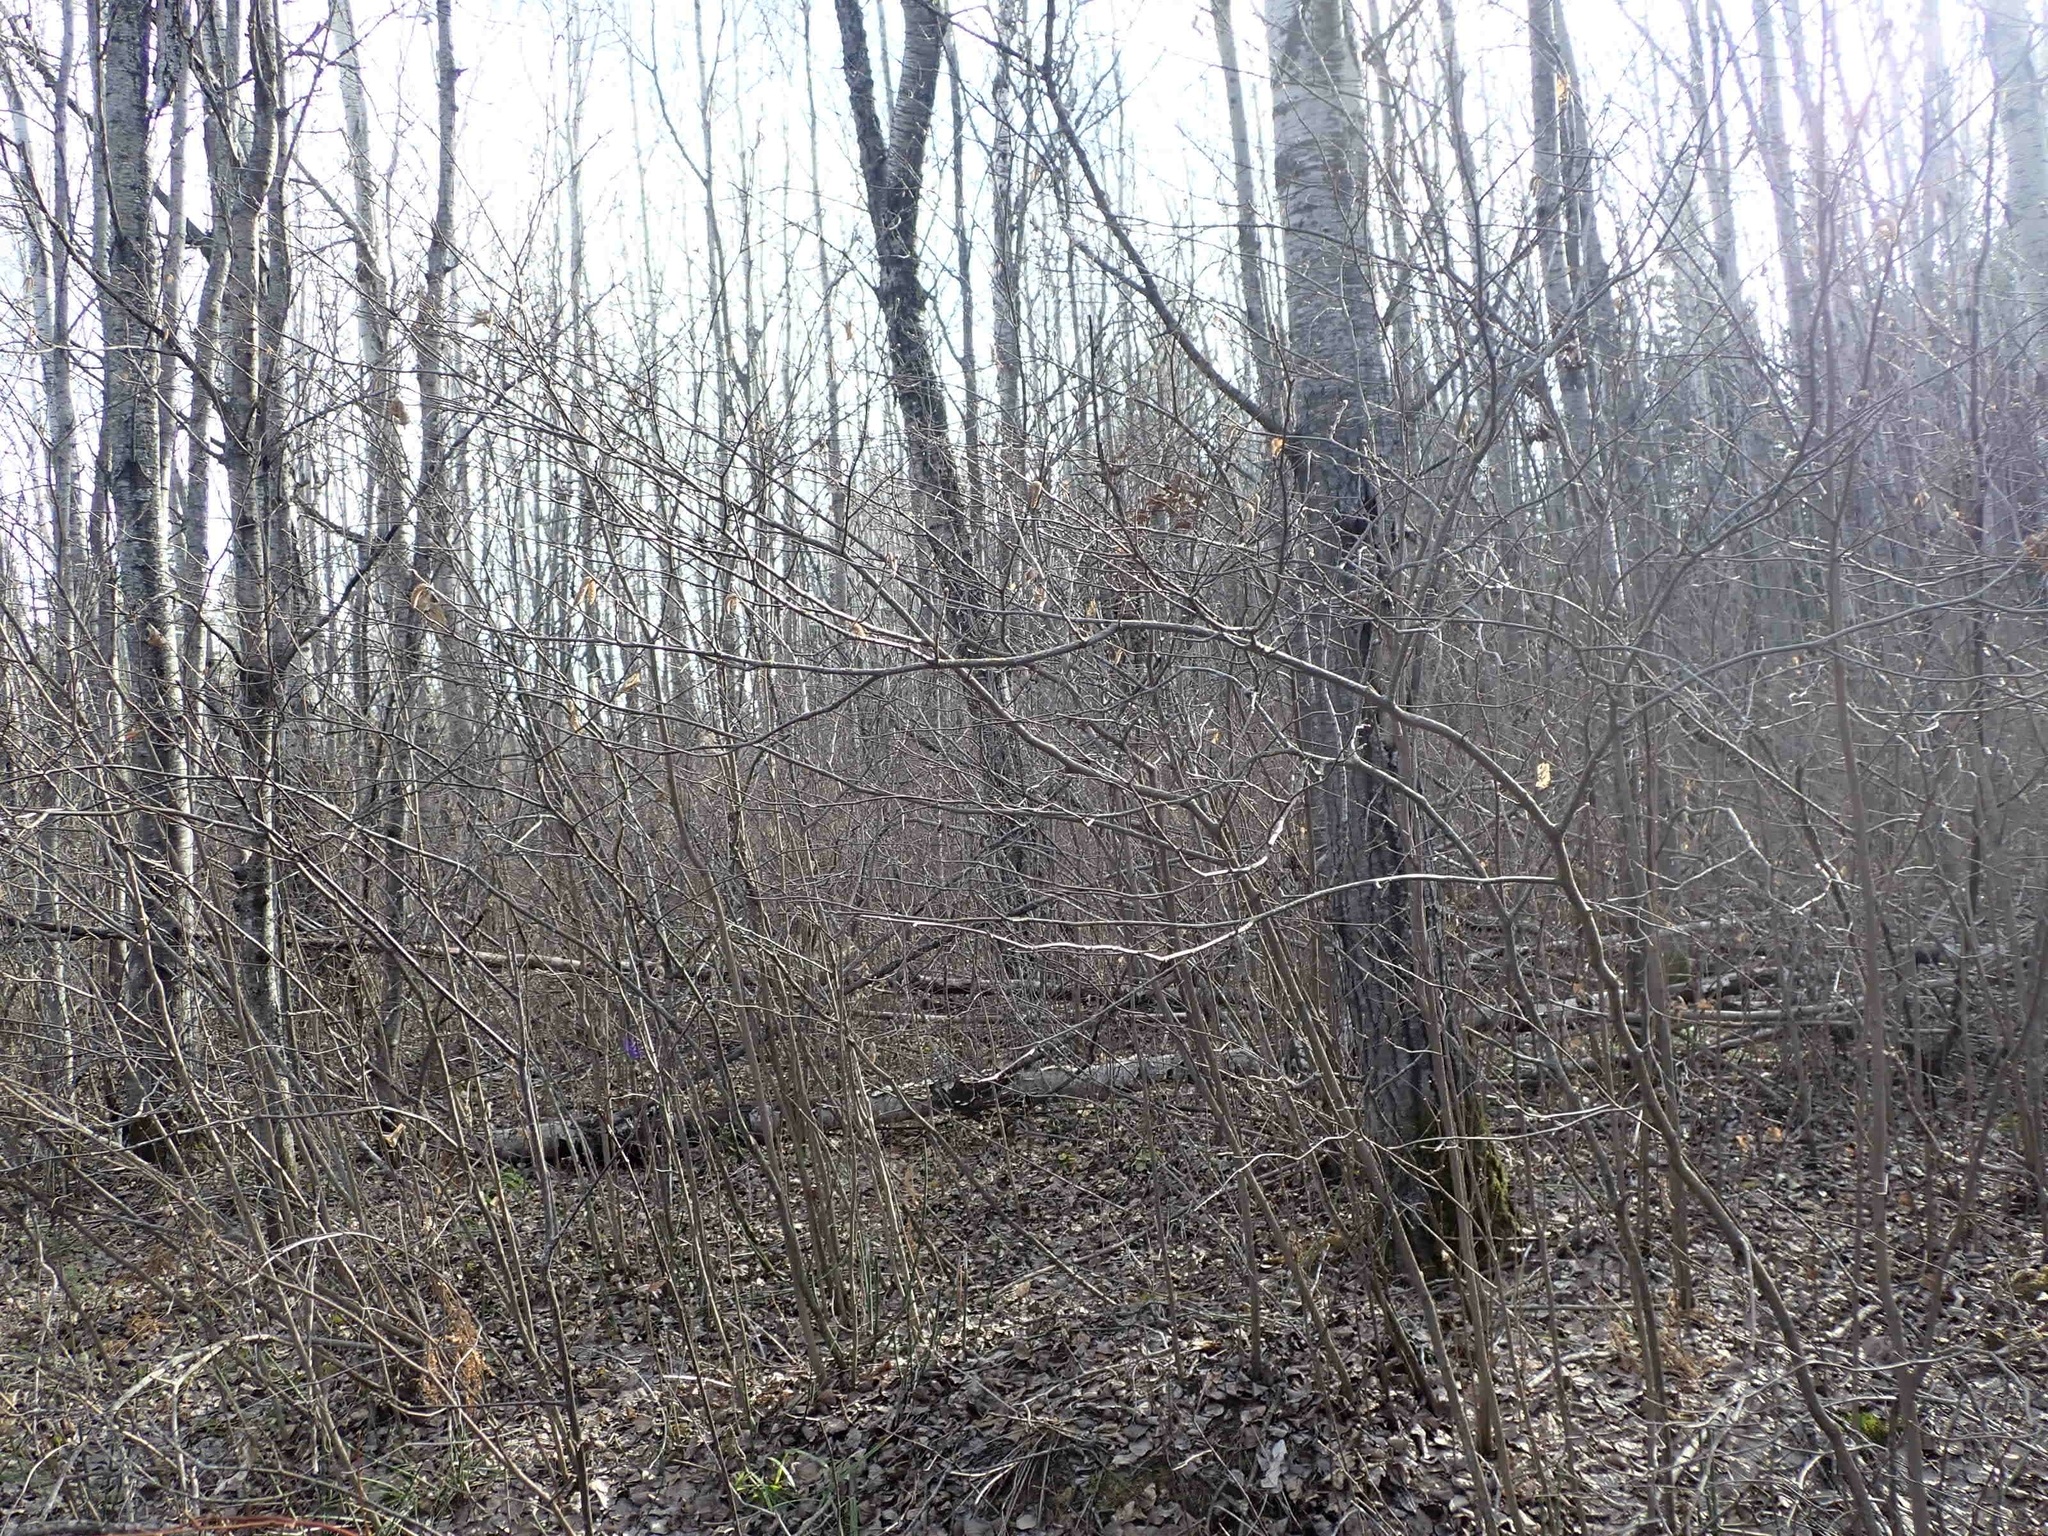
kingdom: Plantae
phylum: Tracheophyta
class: Magnoliopsida
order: Fagales
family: Betulaceae
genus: Corylus
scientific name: Corylus cornuta
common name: Beaked hazel
